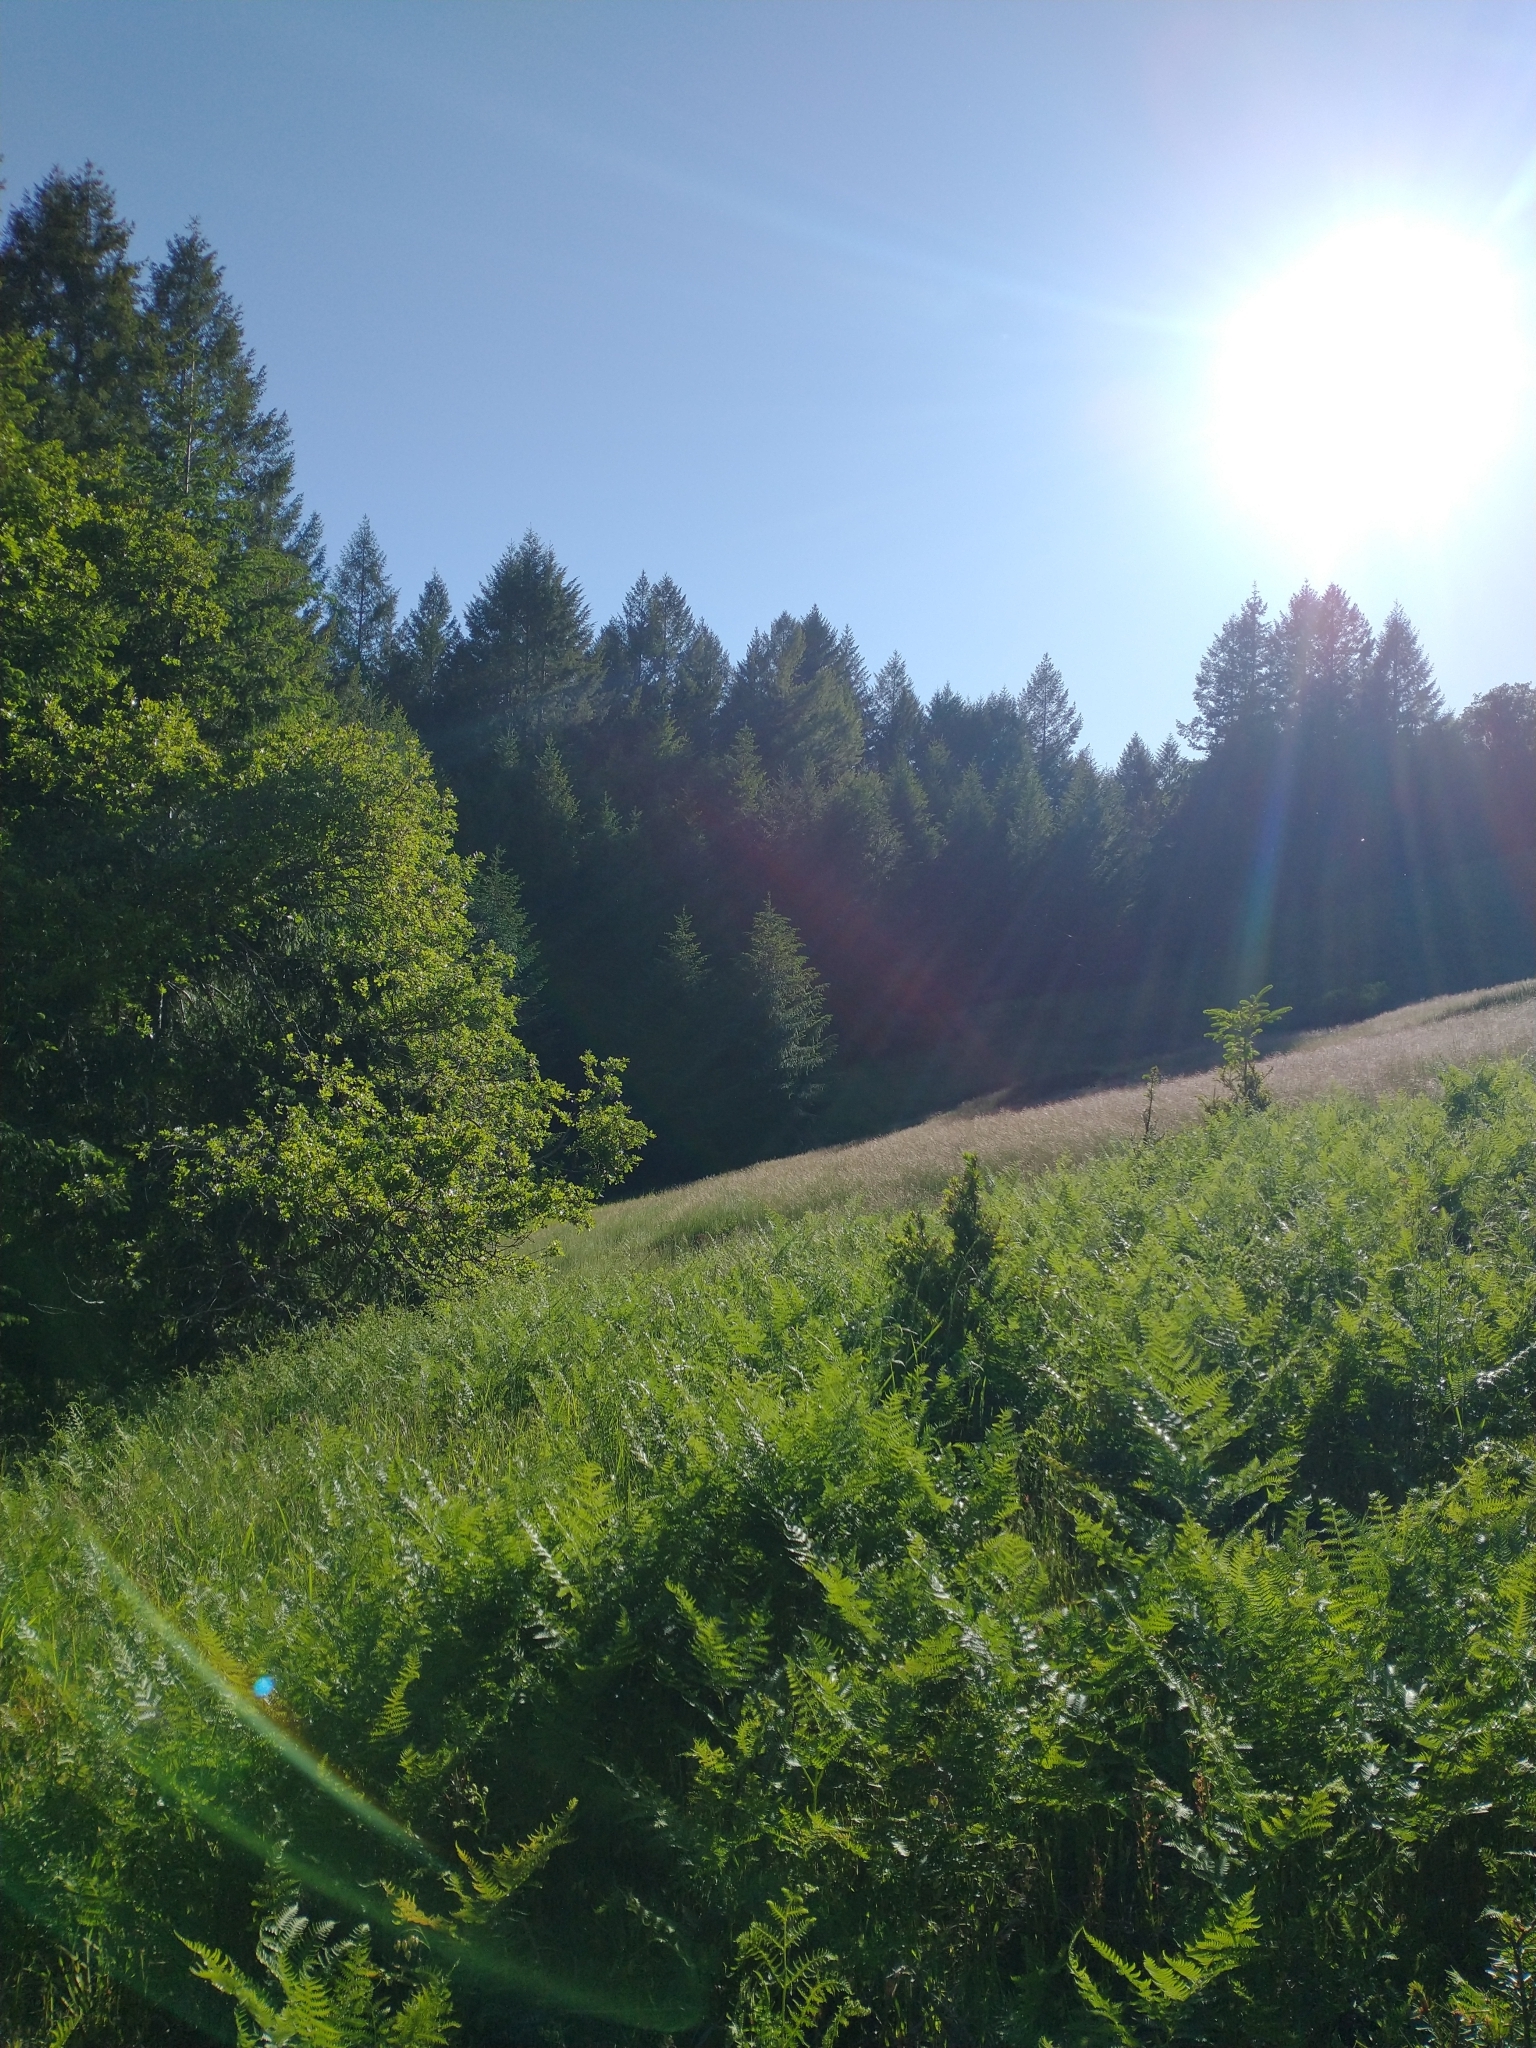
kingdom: Plantae
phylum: Tracheophyta
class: Polypodiopsida
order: Polypodiales
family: Dennstaedtiaceae
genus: Pteridium
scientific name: Pteridium aquilinum
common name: Bracken
